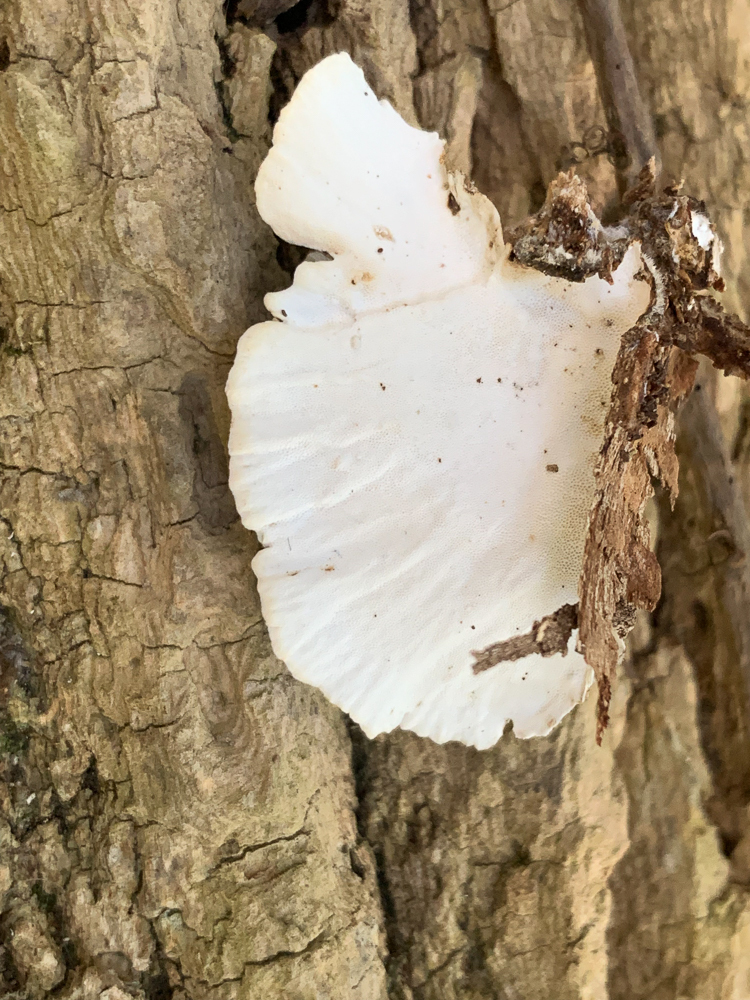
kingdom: Fungi
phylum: Basidiomycota
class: Agaricomycetes
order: Polyporales
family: Polyporaceae
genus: Trametes
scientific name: Trametes versicolor
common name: Turkeytail
